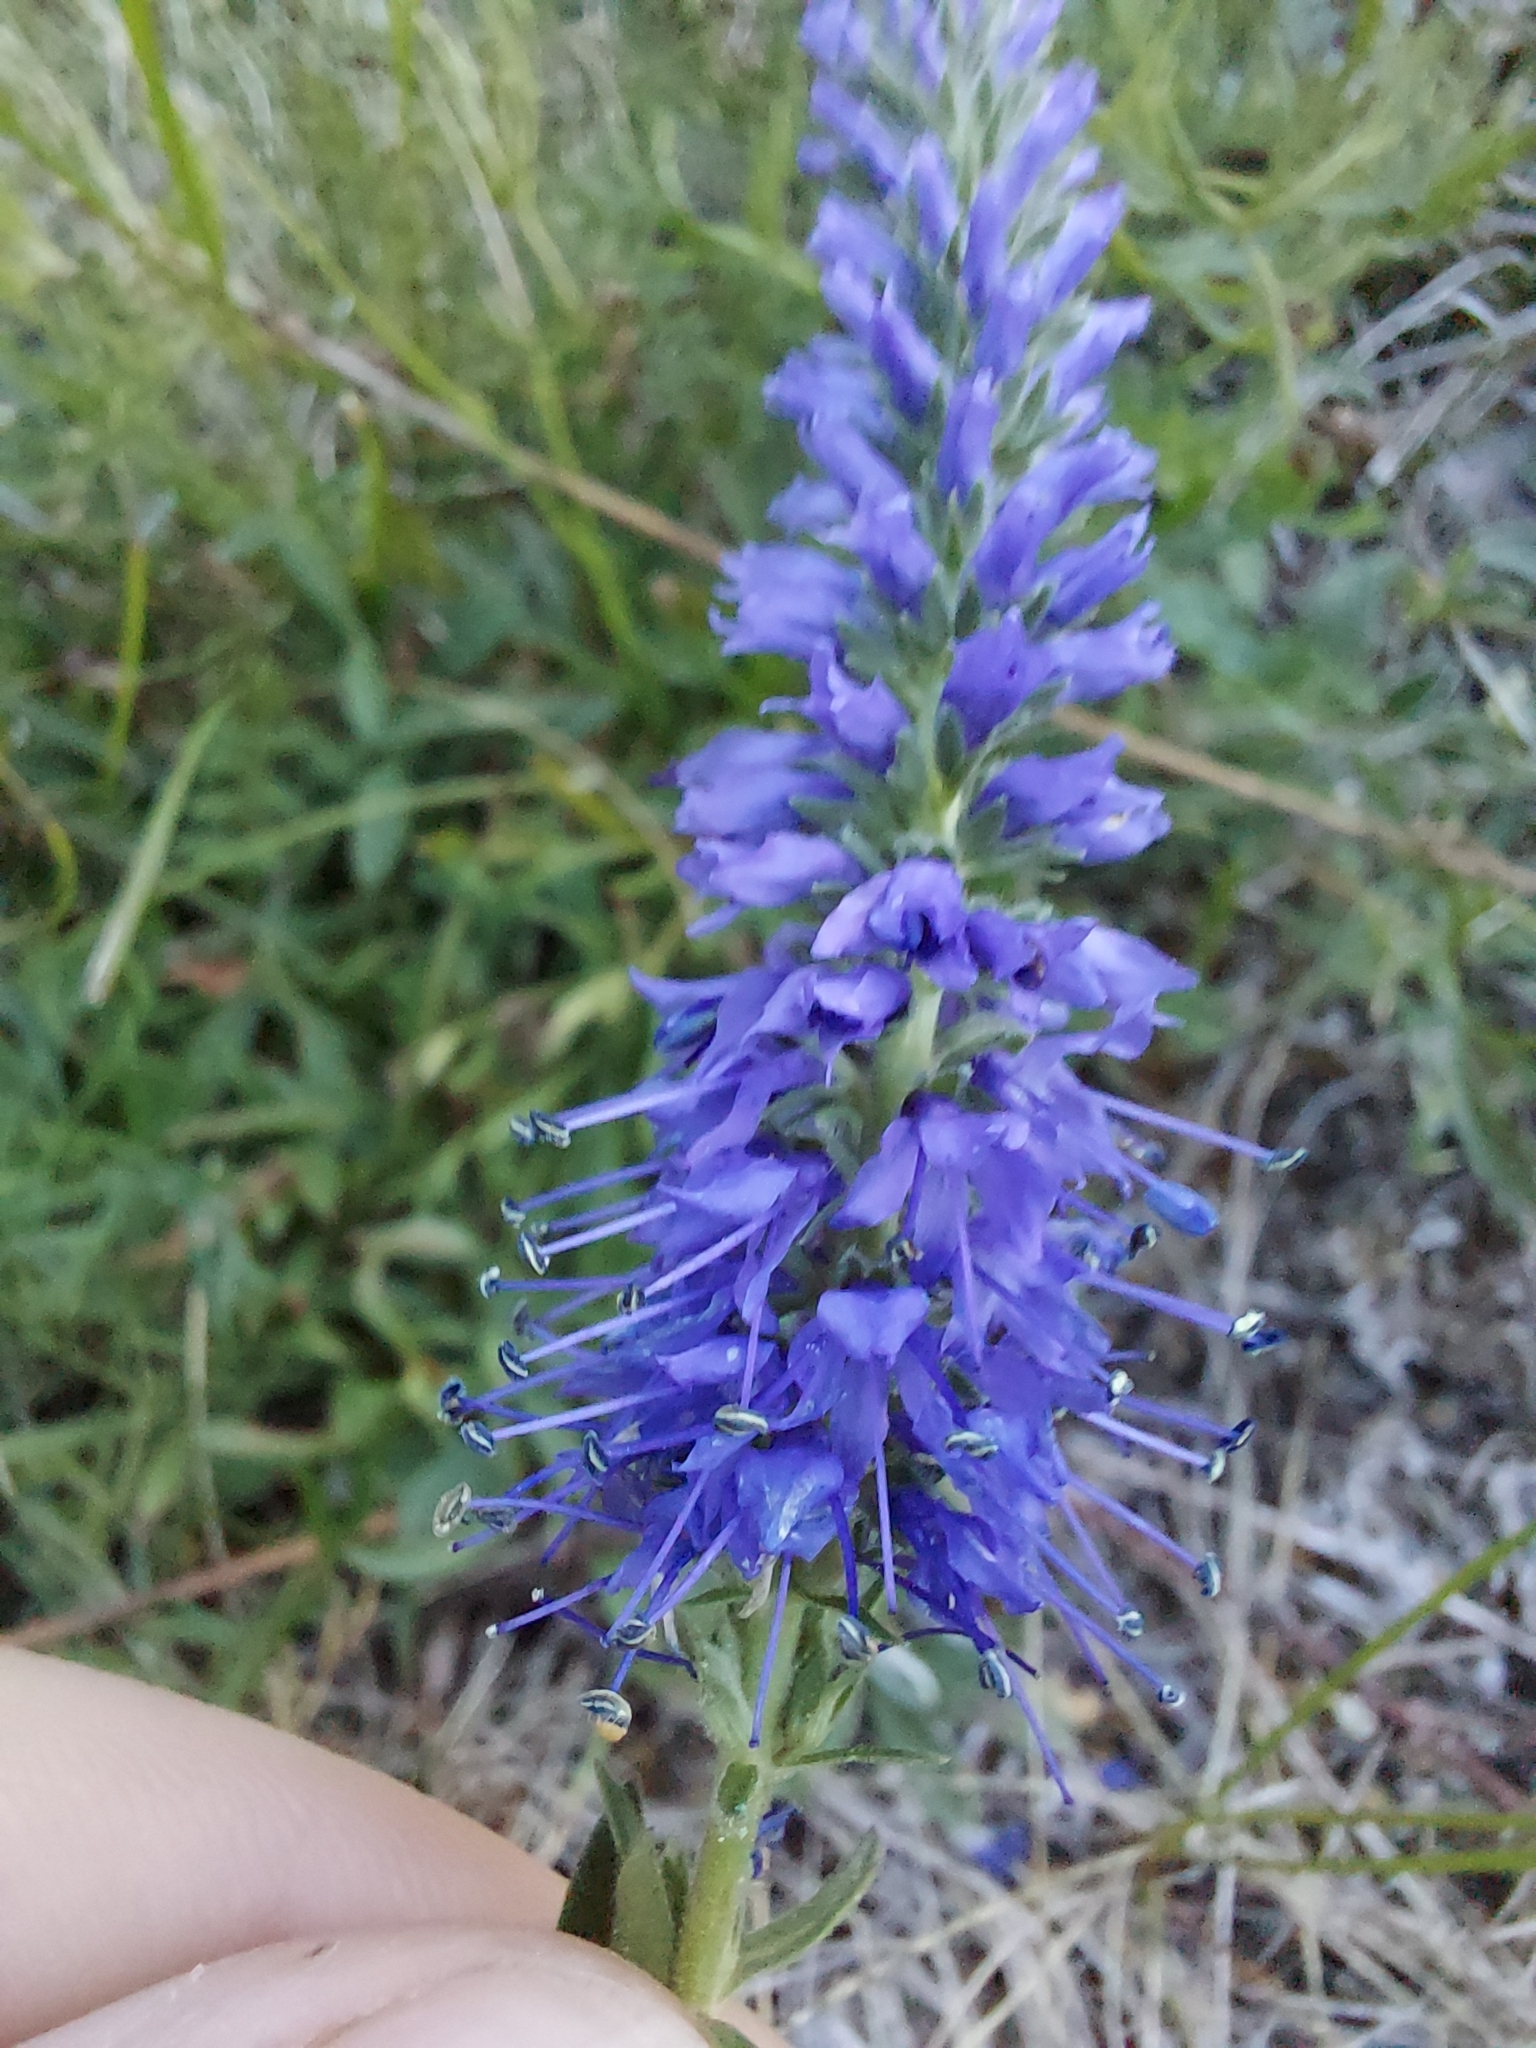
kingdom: Plantae
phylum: Tracheophyta
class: Magnoliopsida
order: Lamiales
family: Plantaginaceae
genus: Veronica
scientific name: Veronica spicata
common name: Spiked speedwell
